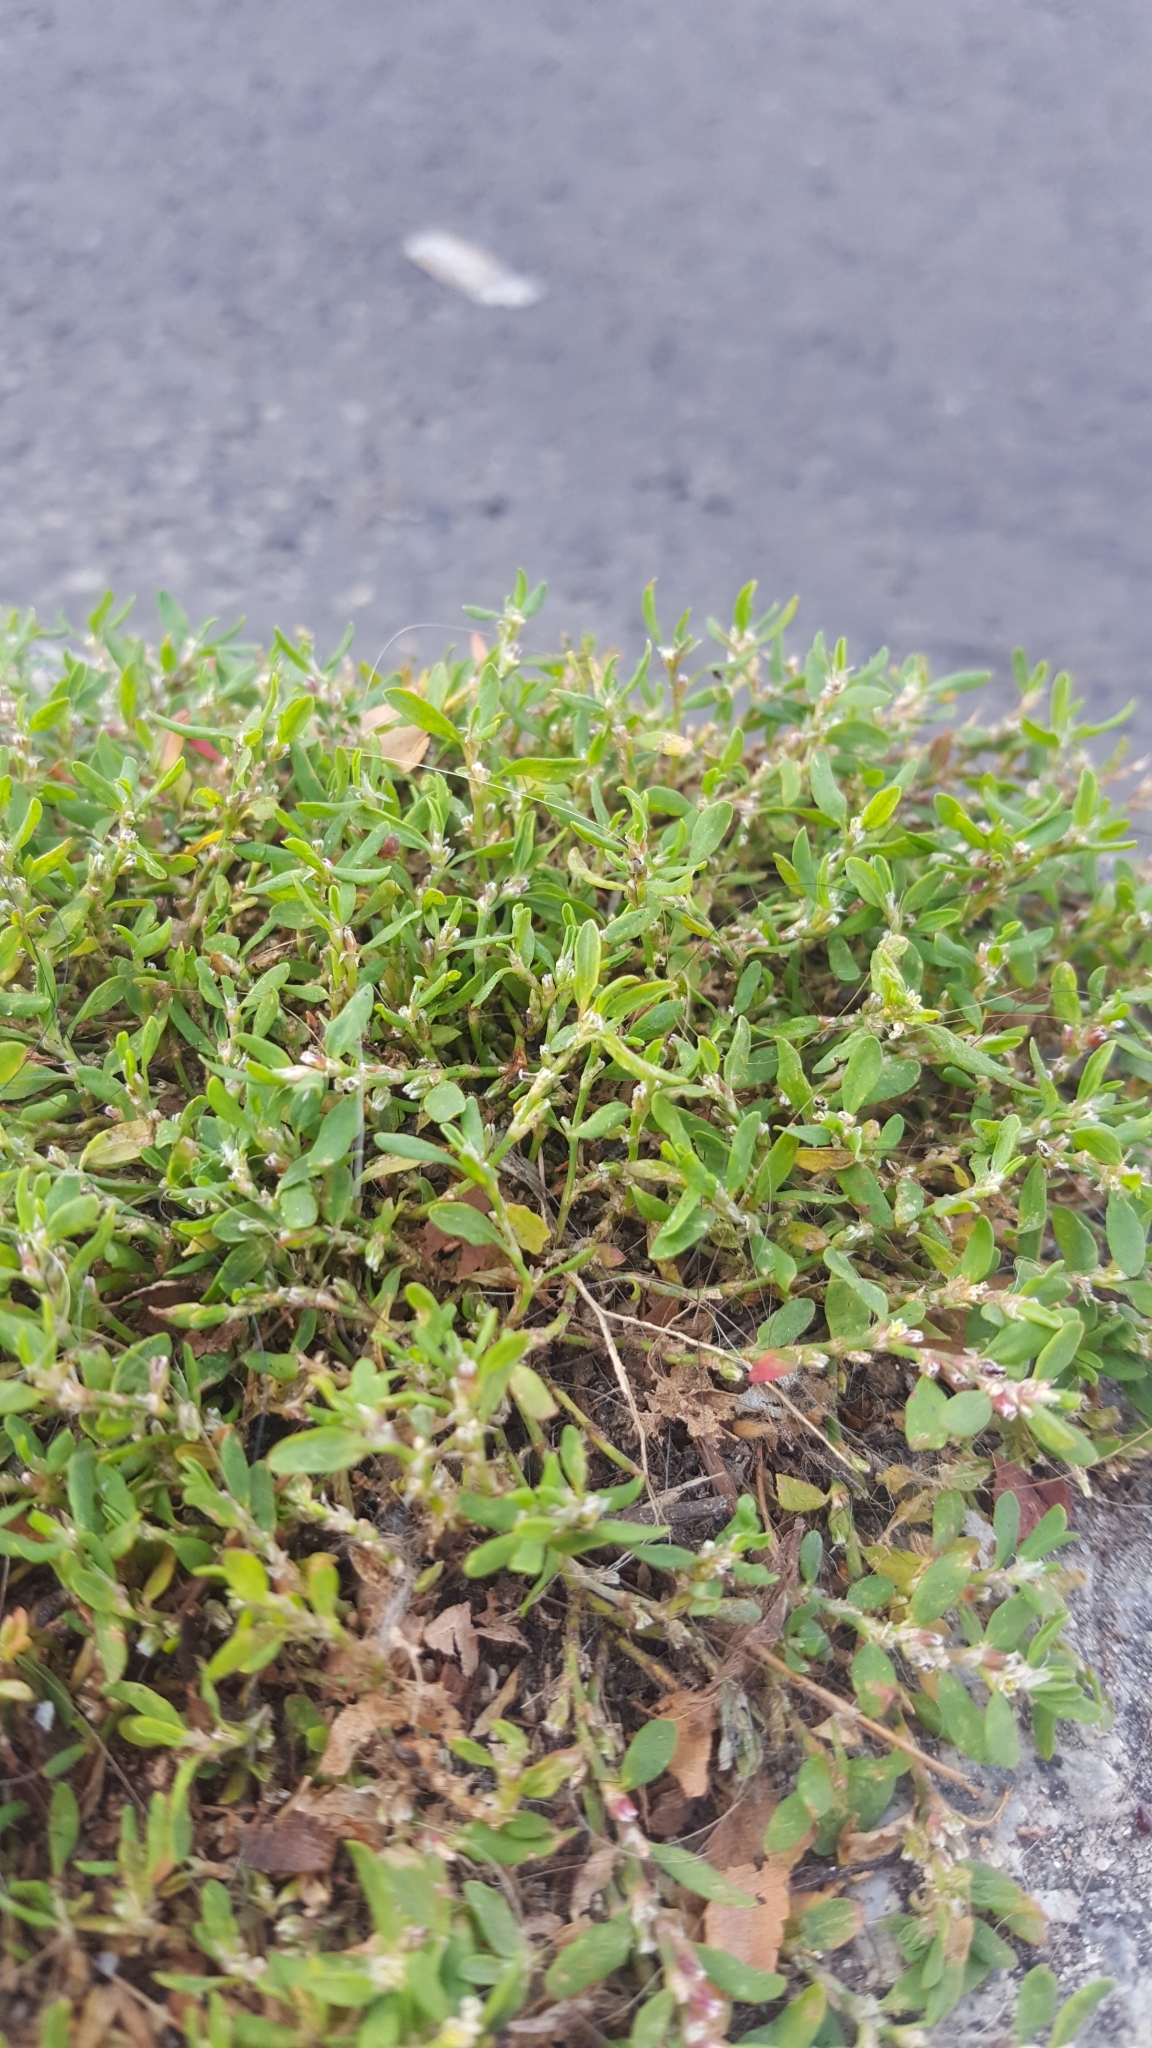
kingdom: Plantae
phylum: Tracheophyta
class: Magnoliopsida
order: Caryophyllales
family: Polygonaceae
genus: Polygonum
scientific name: Polygonum arenastrum
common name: Equal-leaved knotgrass
